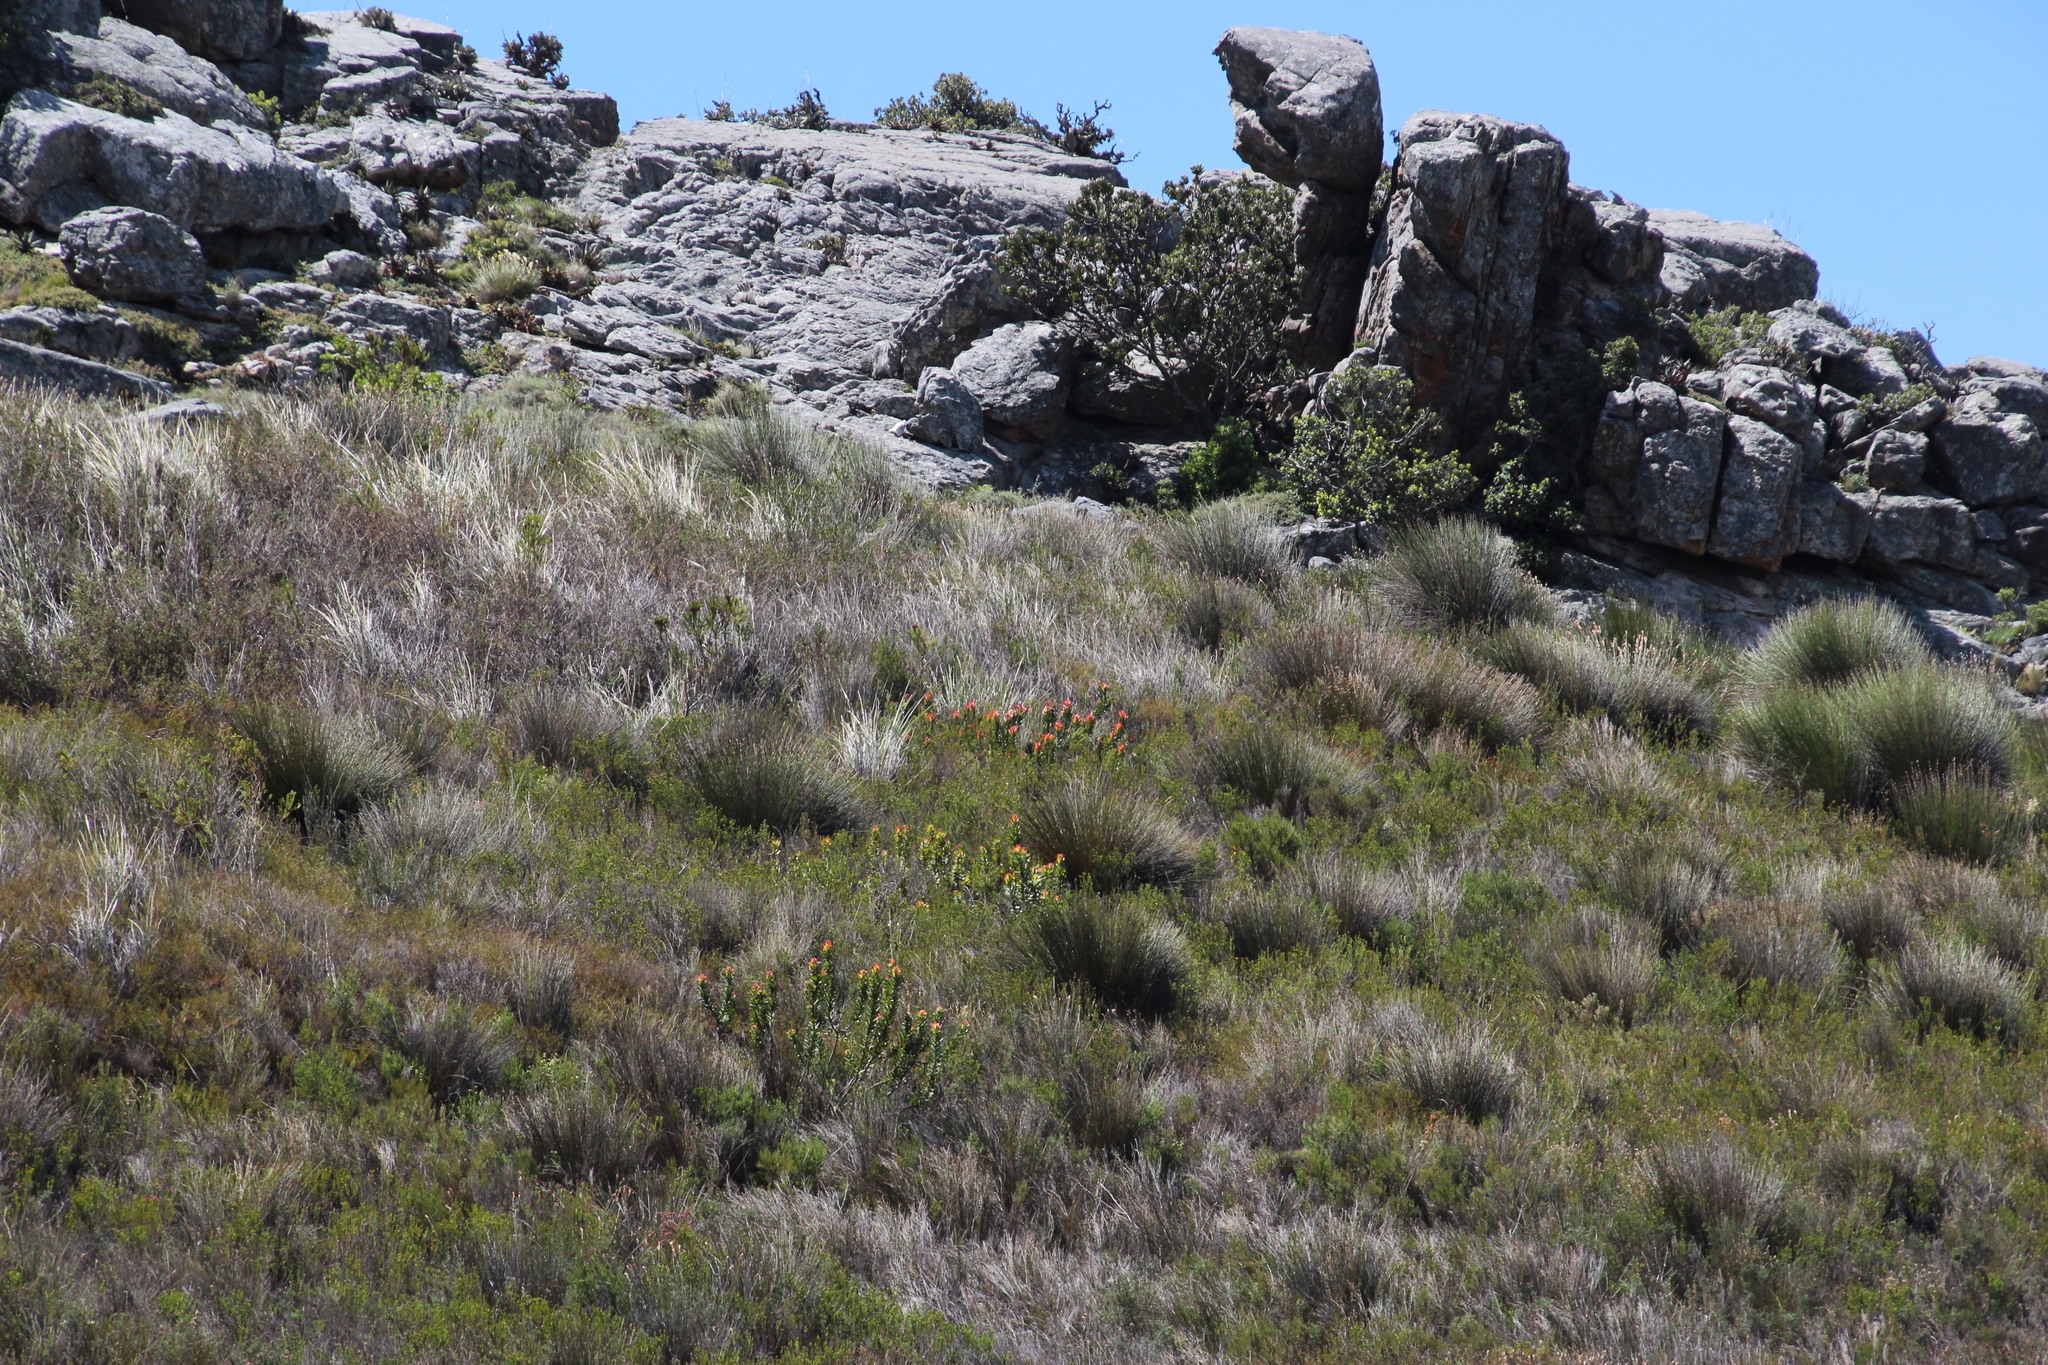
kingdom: Plantae
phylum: Tracheophyta
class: Magnoliopsida
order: Proteales
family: Proteaceae
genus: Mimetes
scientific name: Mimetes cucullatus
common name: Common pagoda
